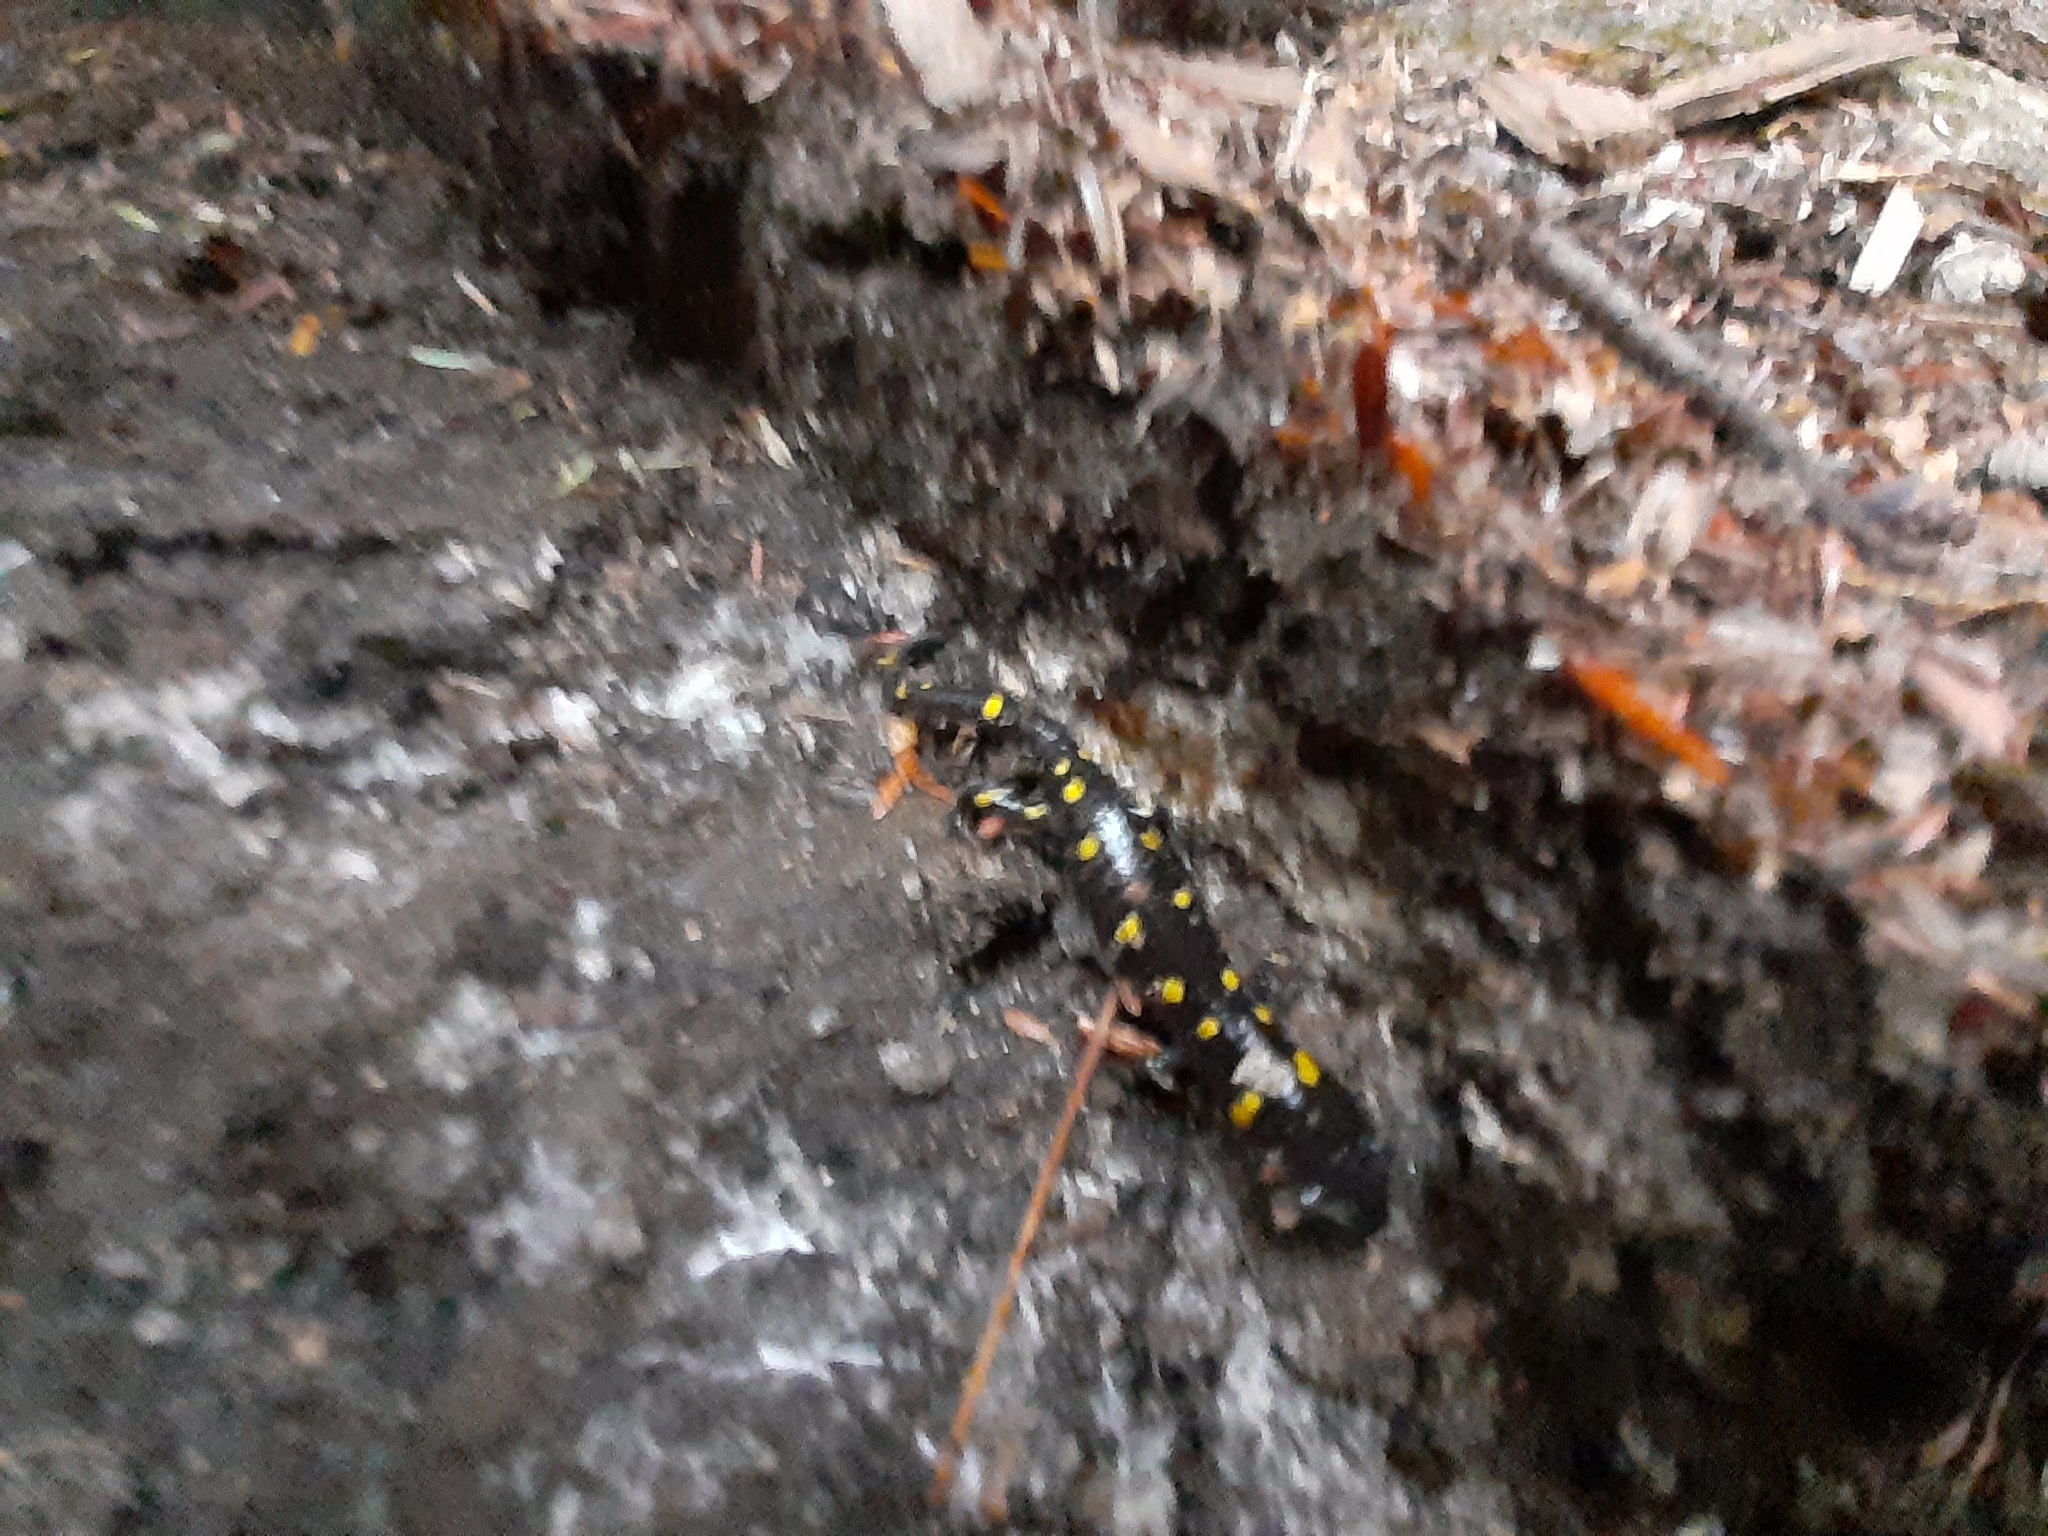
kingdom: Animalia
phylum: Chordata
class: Amphibia
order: Caudata
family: Ambystomatidae
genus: Ambystoma
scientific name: Ambystoma maculatum
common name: Spotted salamander
